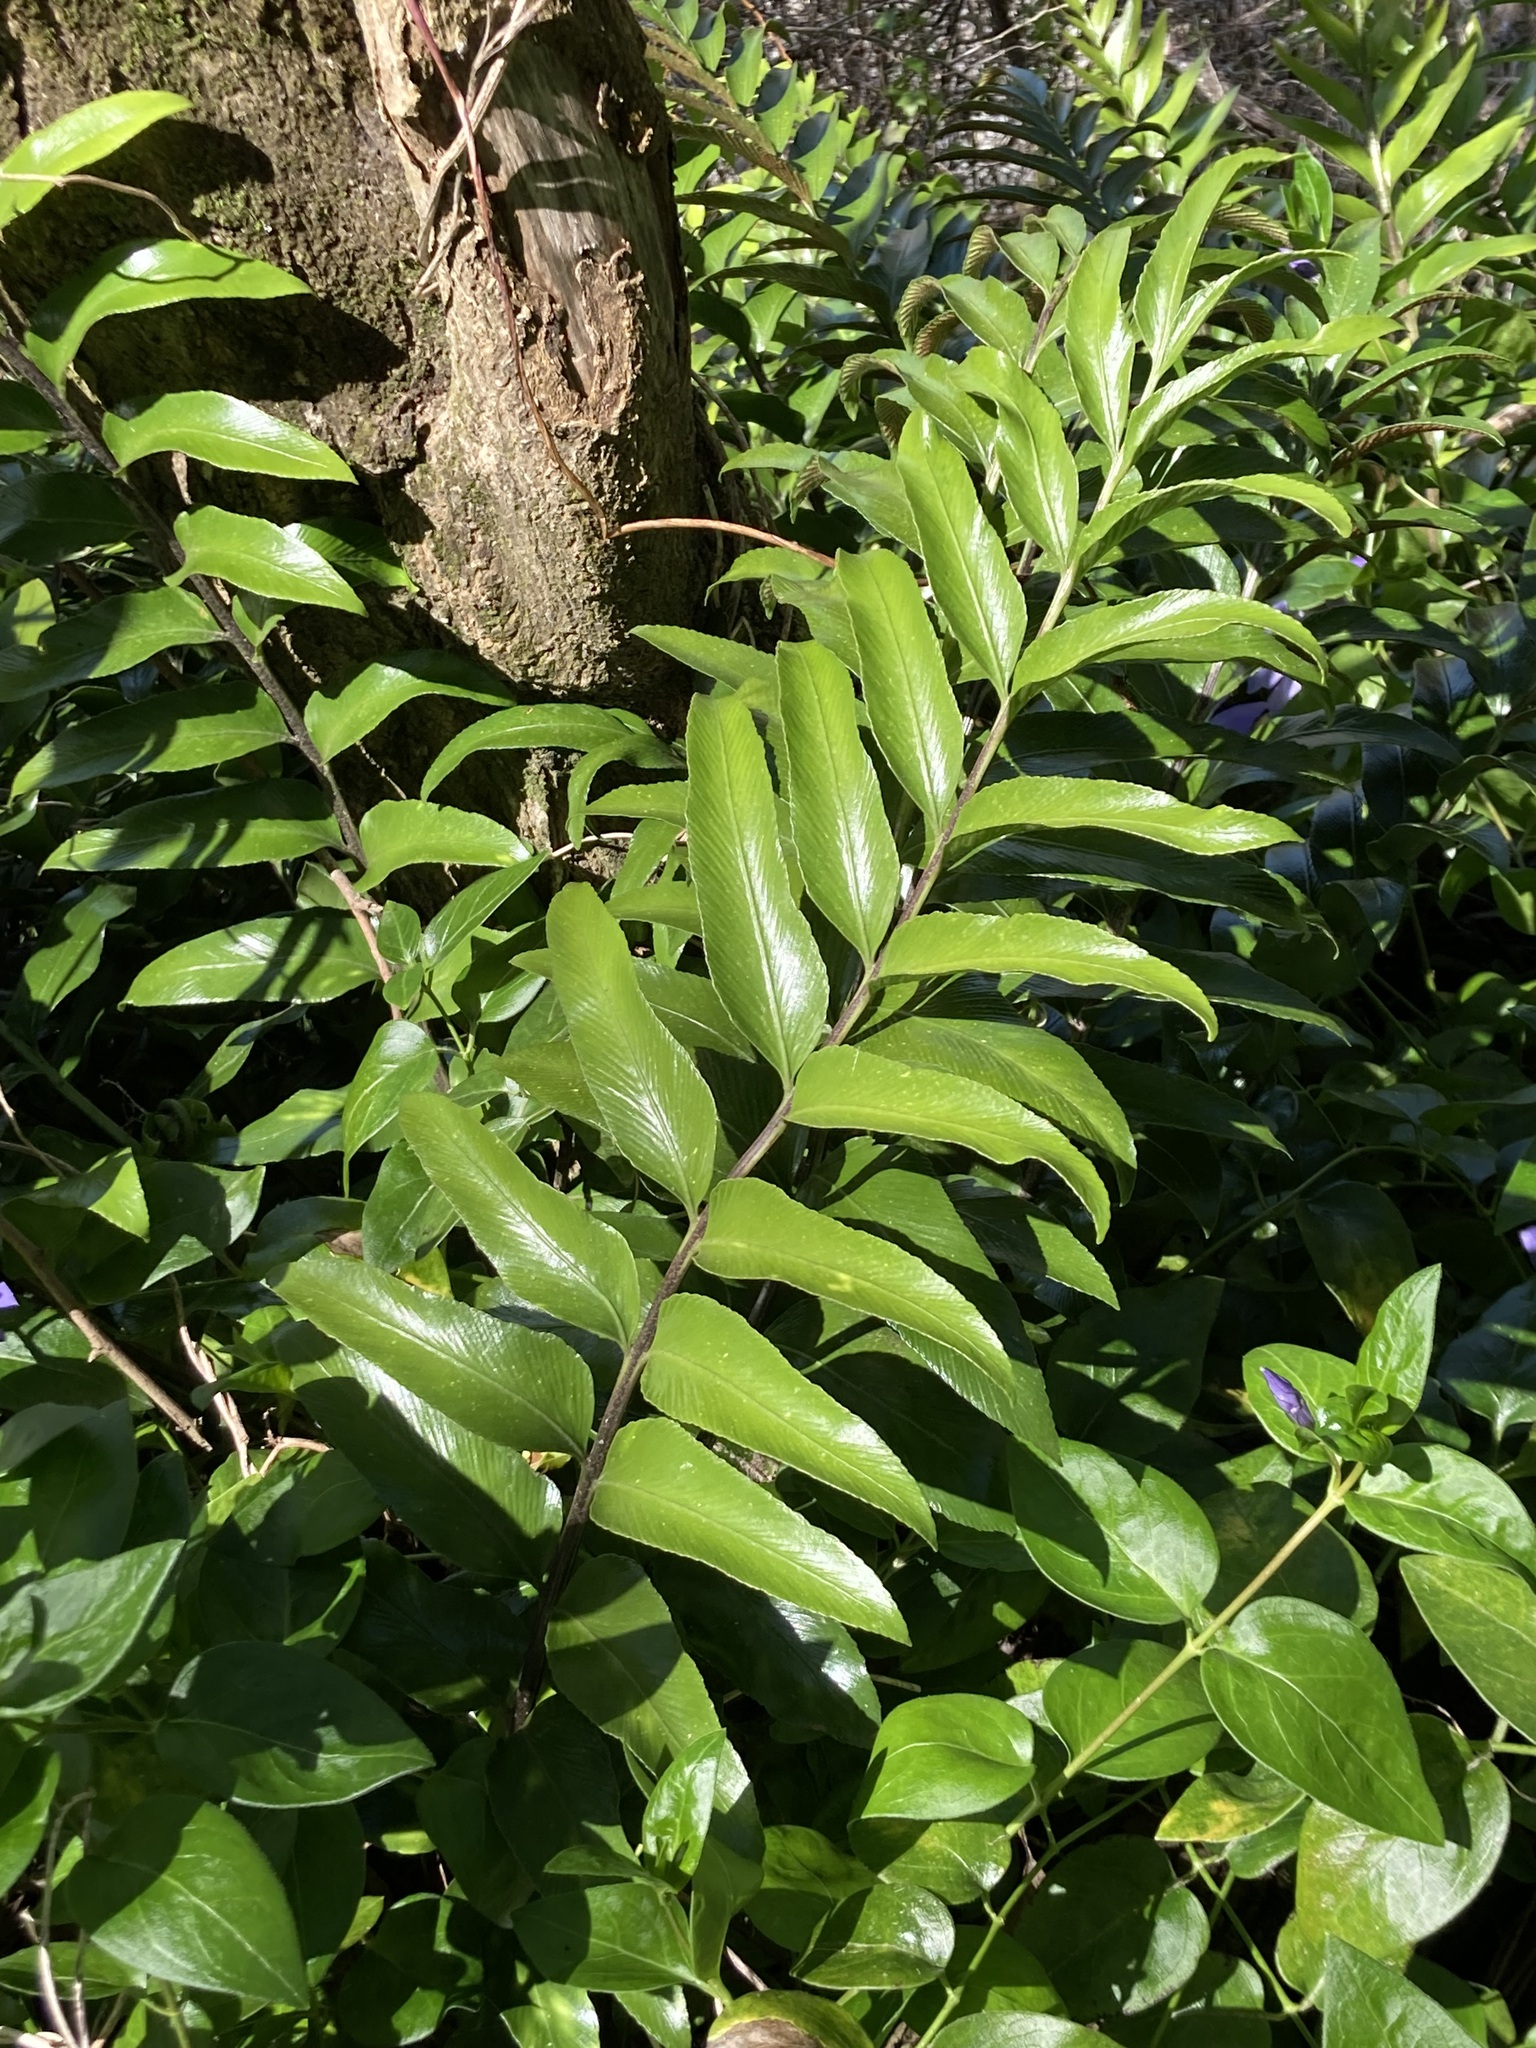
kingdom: Plantae
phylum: Tracheophyta
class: Polypodiopsida
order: Polypodiales
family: Aspleniaceae
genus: Asplenium
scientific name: Asplenium oblongifolium
